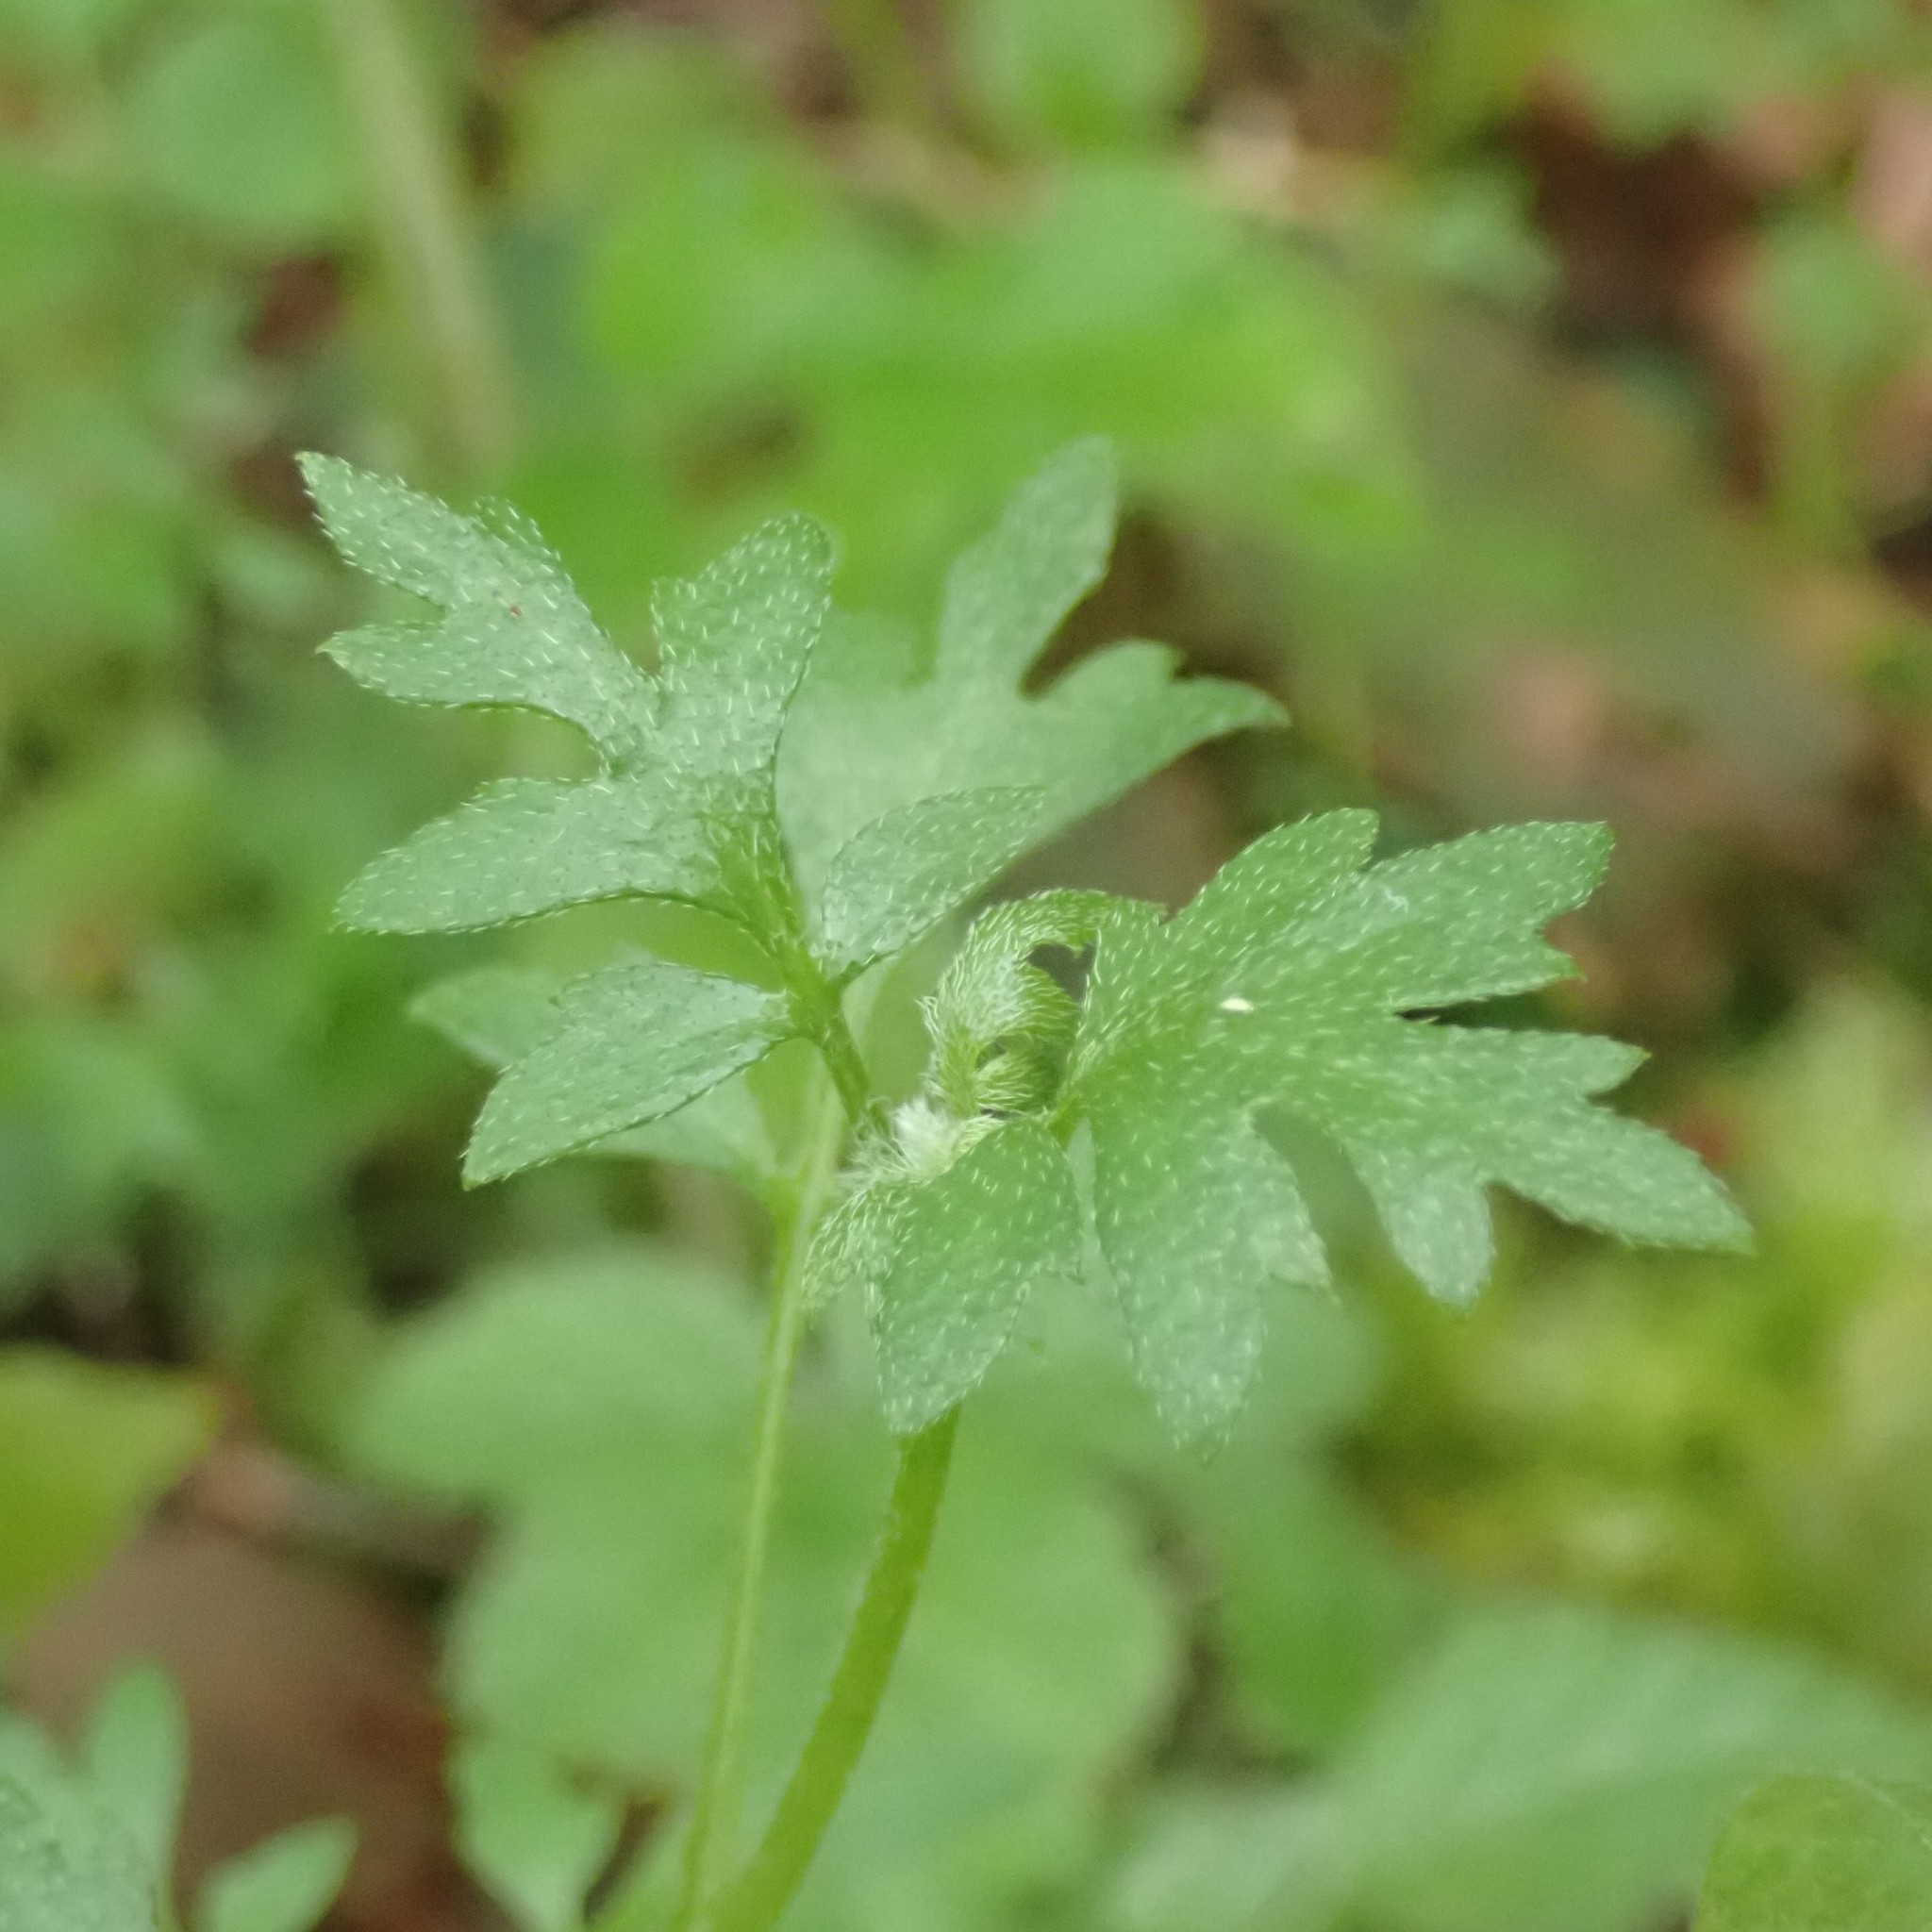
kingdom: Plantae
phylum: Tracheophyta
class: Magnoliopsida
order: Boraginales
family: Hydrophyllaceae
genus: Nemophila
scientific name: Nemophila parviflora
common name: Small-flowered baby-blue-eyes
